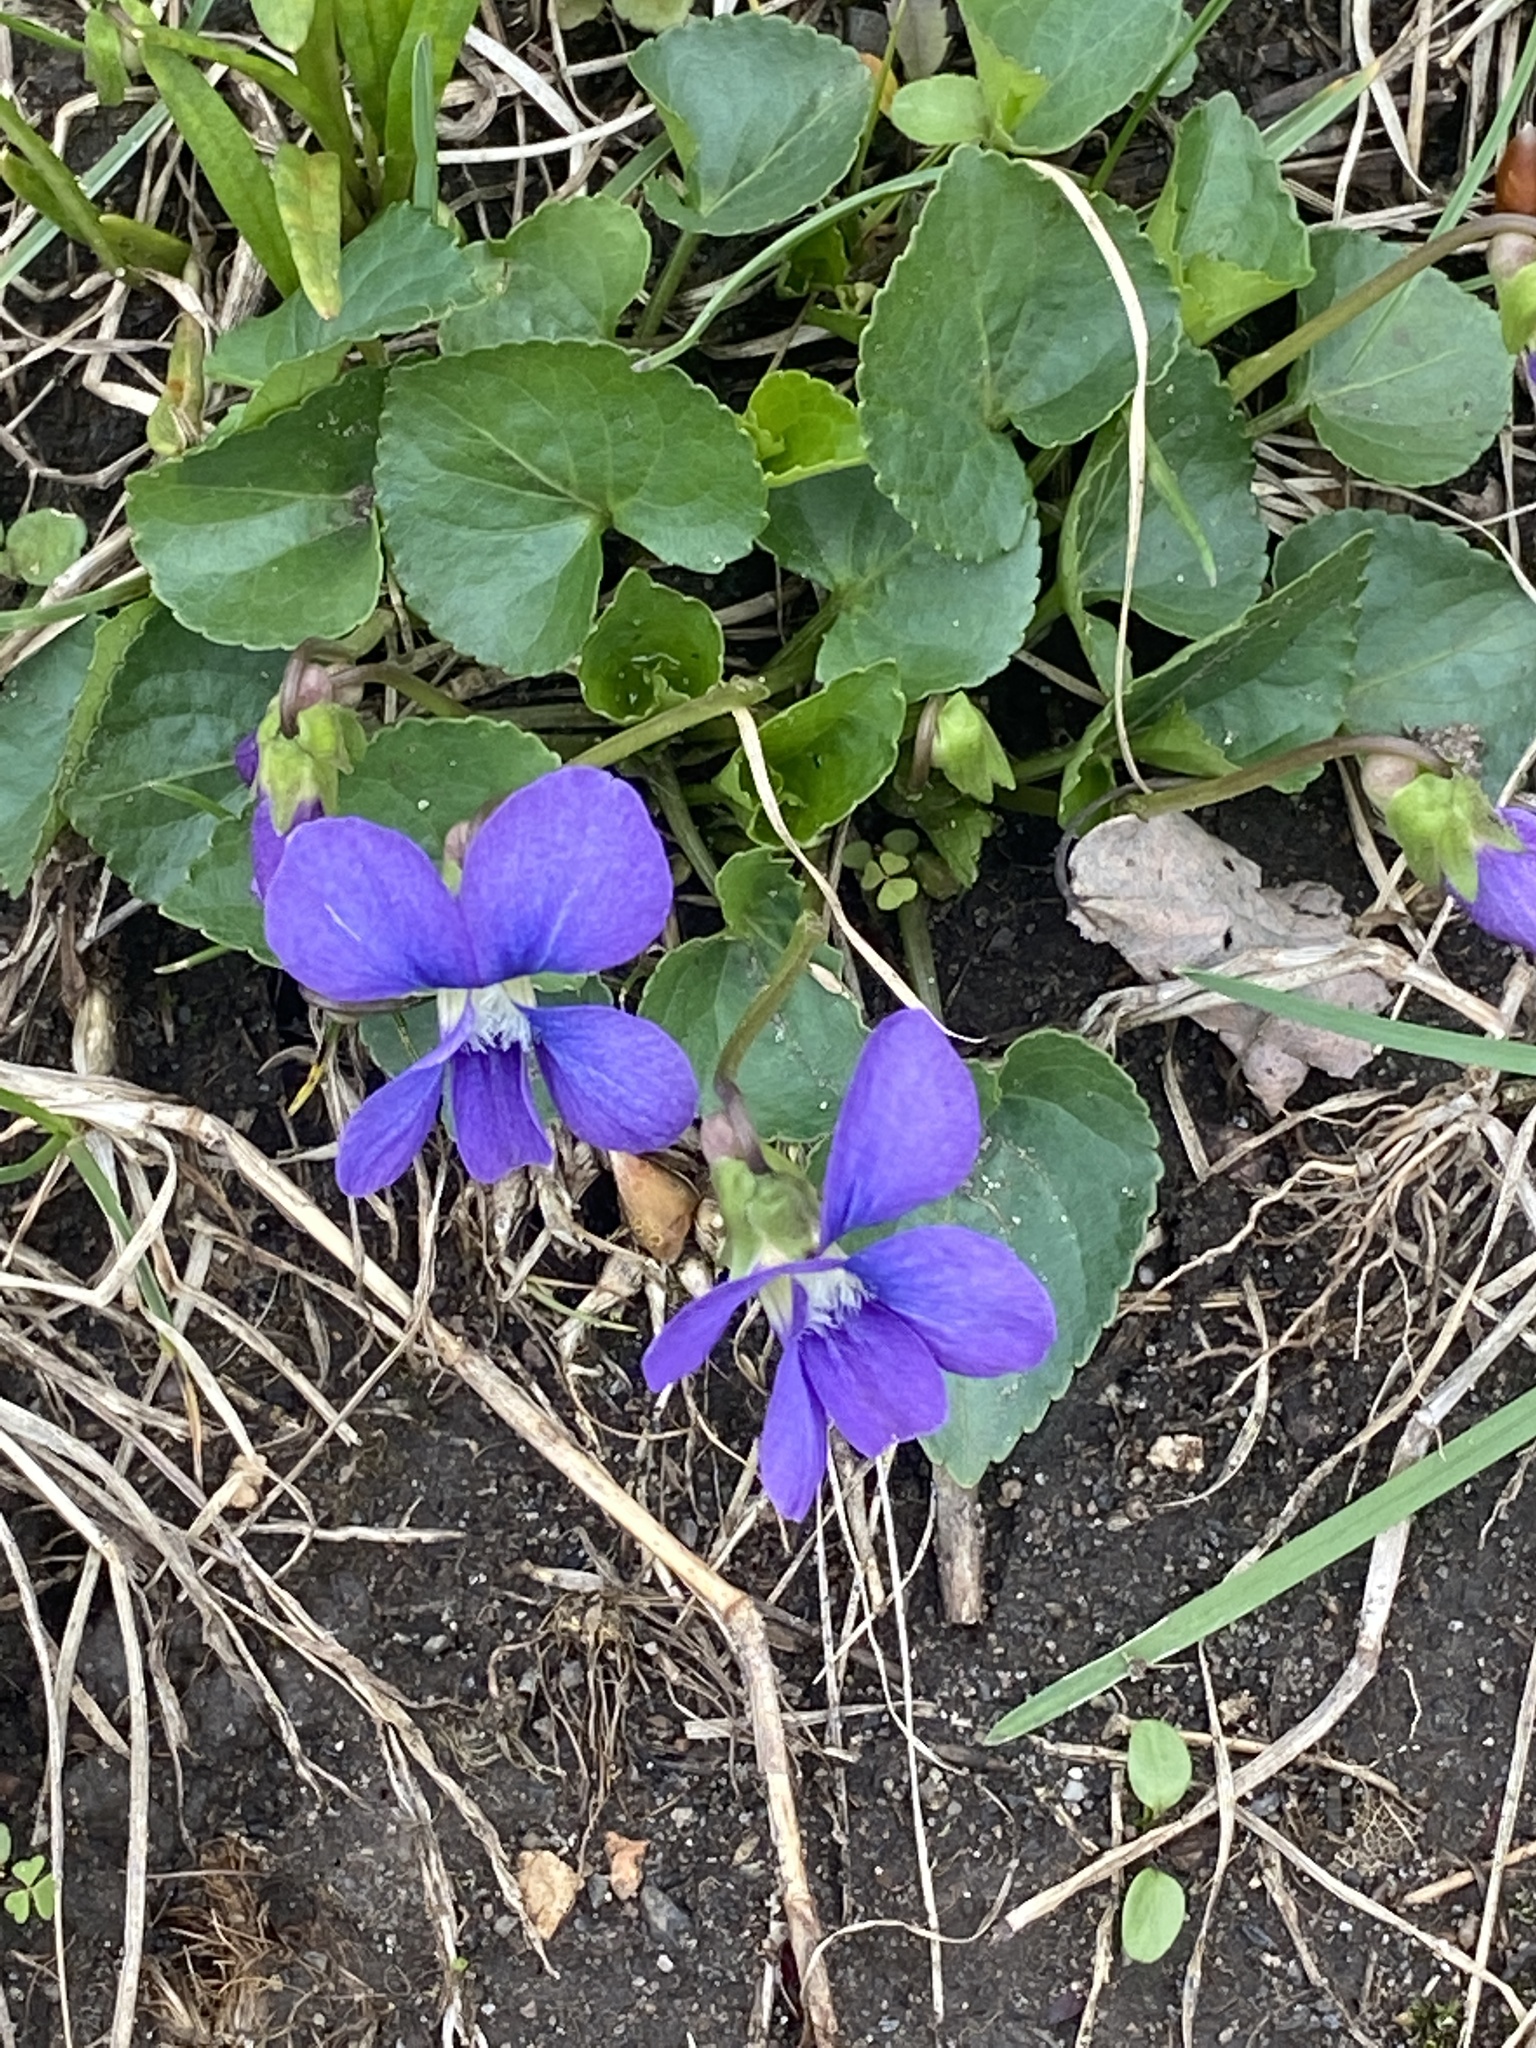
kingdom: Plantae
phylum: Tracheophyta
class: Magnoliopsida
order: Malpighiales
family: Violaceae
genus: Viola
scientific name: Viola sororia
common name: Dooryard violet
